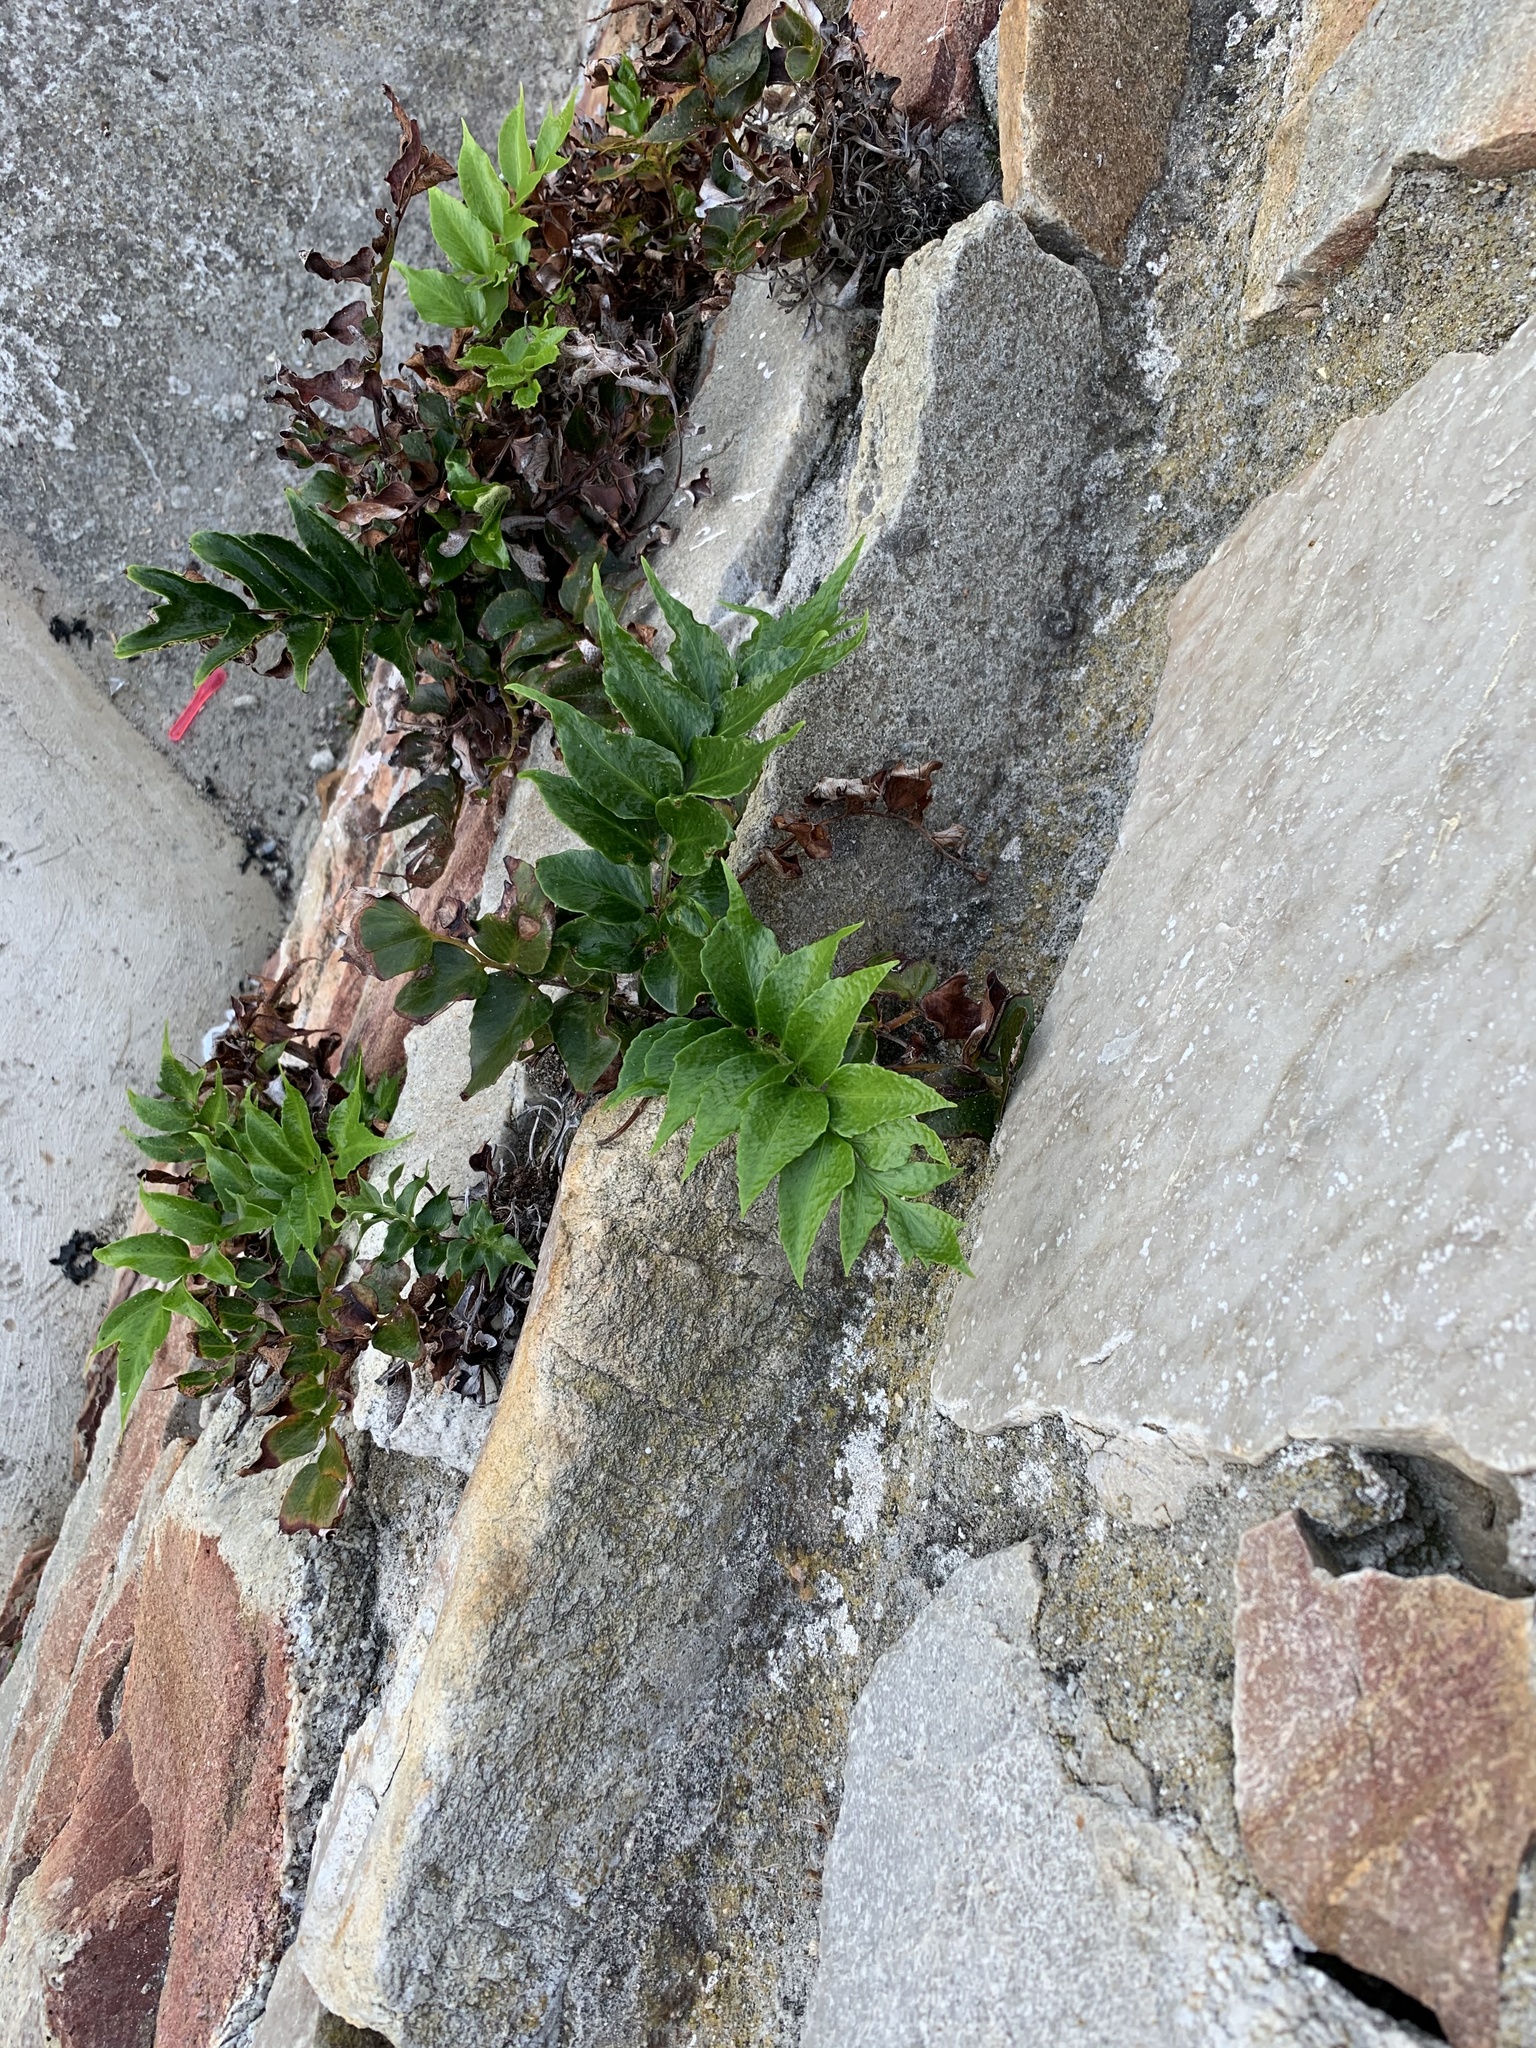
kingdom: Plantae
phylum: Tracheophyta
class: Polypodiopsida
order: Polypodiales
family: Dryopteridaceae
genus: Cyrtomium
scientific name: Cyrtomium falcatum
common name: House holly-fern
